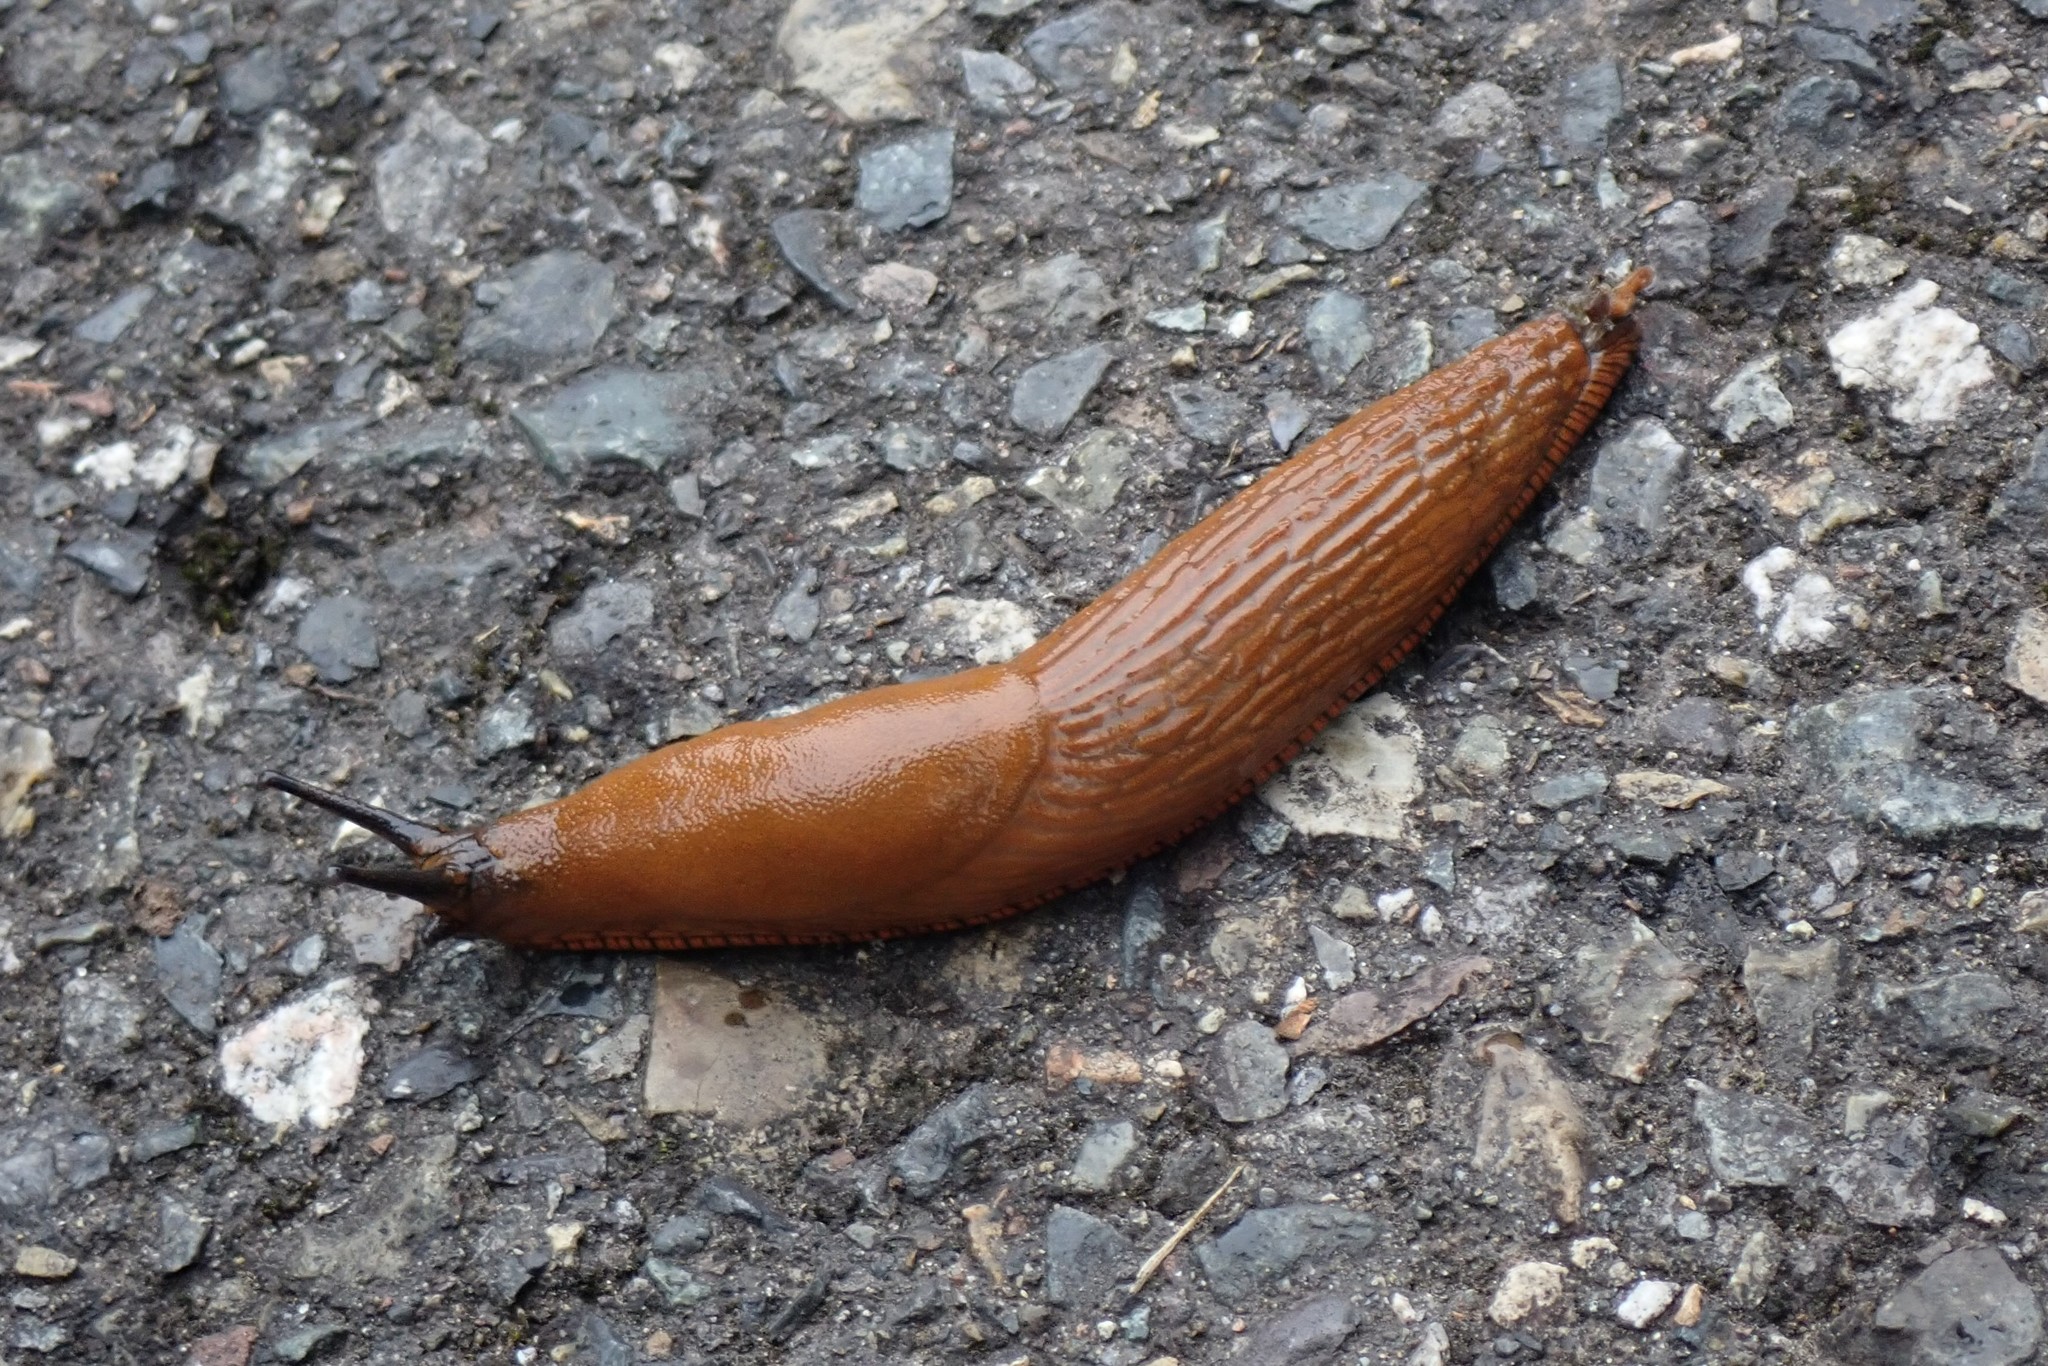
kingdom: Animalia
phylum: Mollusca
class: Gastropoda
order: Stylommatophora
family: Arionidae
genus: Arion
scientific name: Arion
